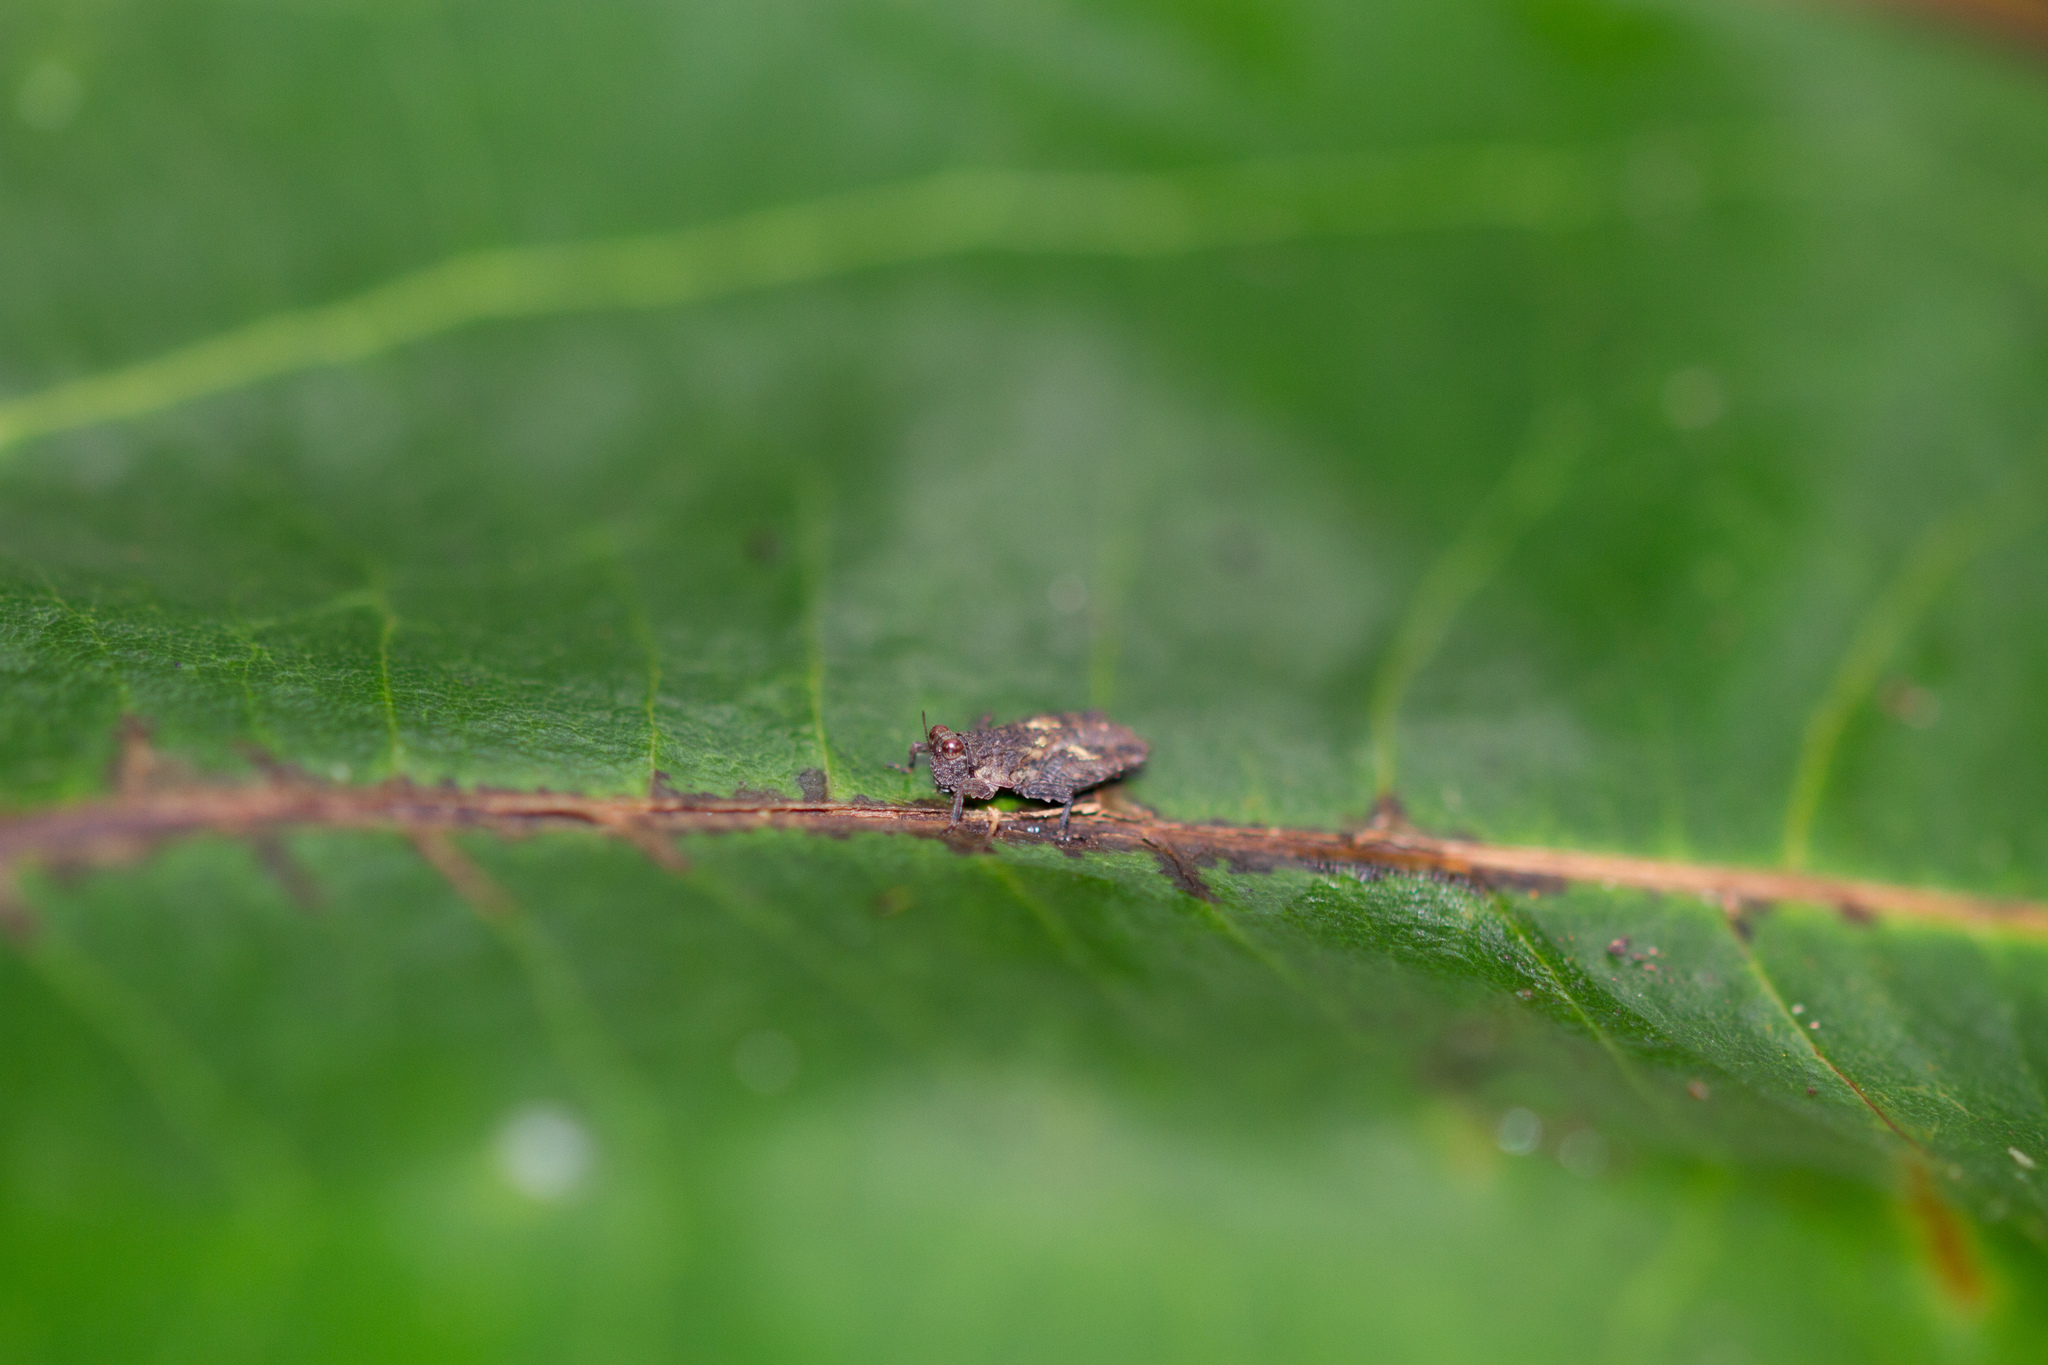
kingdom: Animalia
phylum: Arthropoda
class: Insecta
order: Orthoptera
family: Tetrigidae
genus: Amphinotus
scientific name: Amphinotus nymphula
